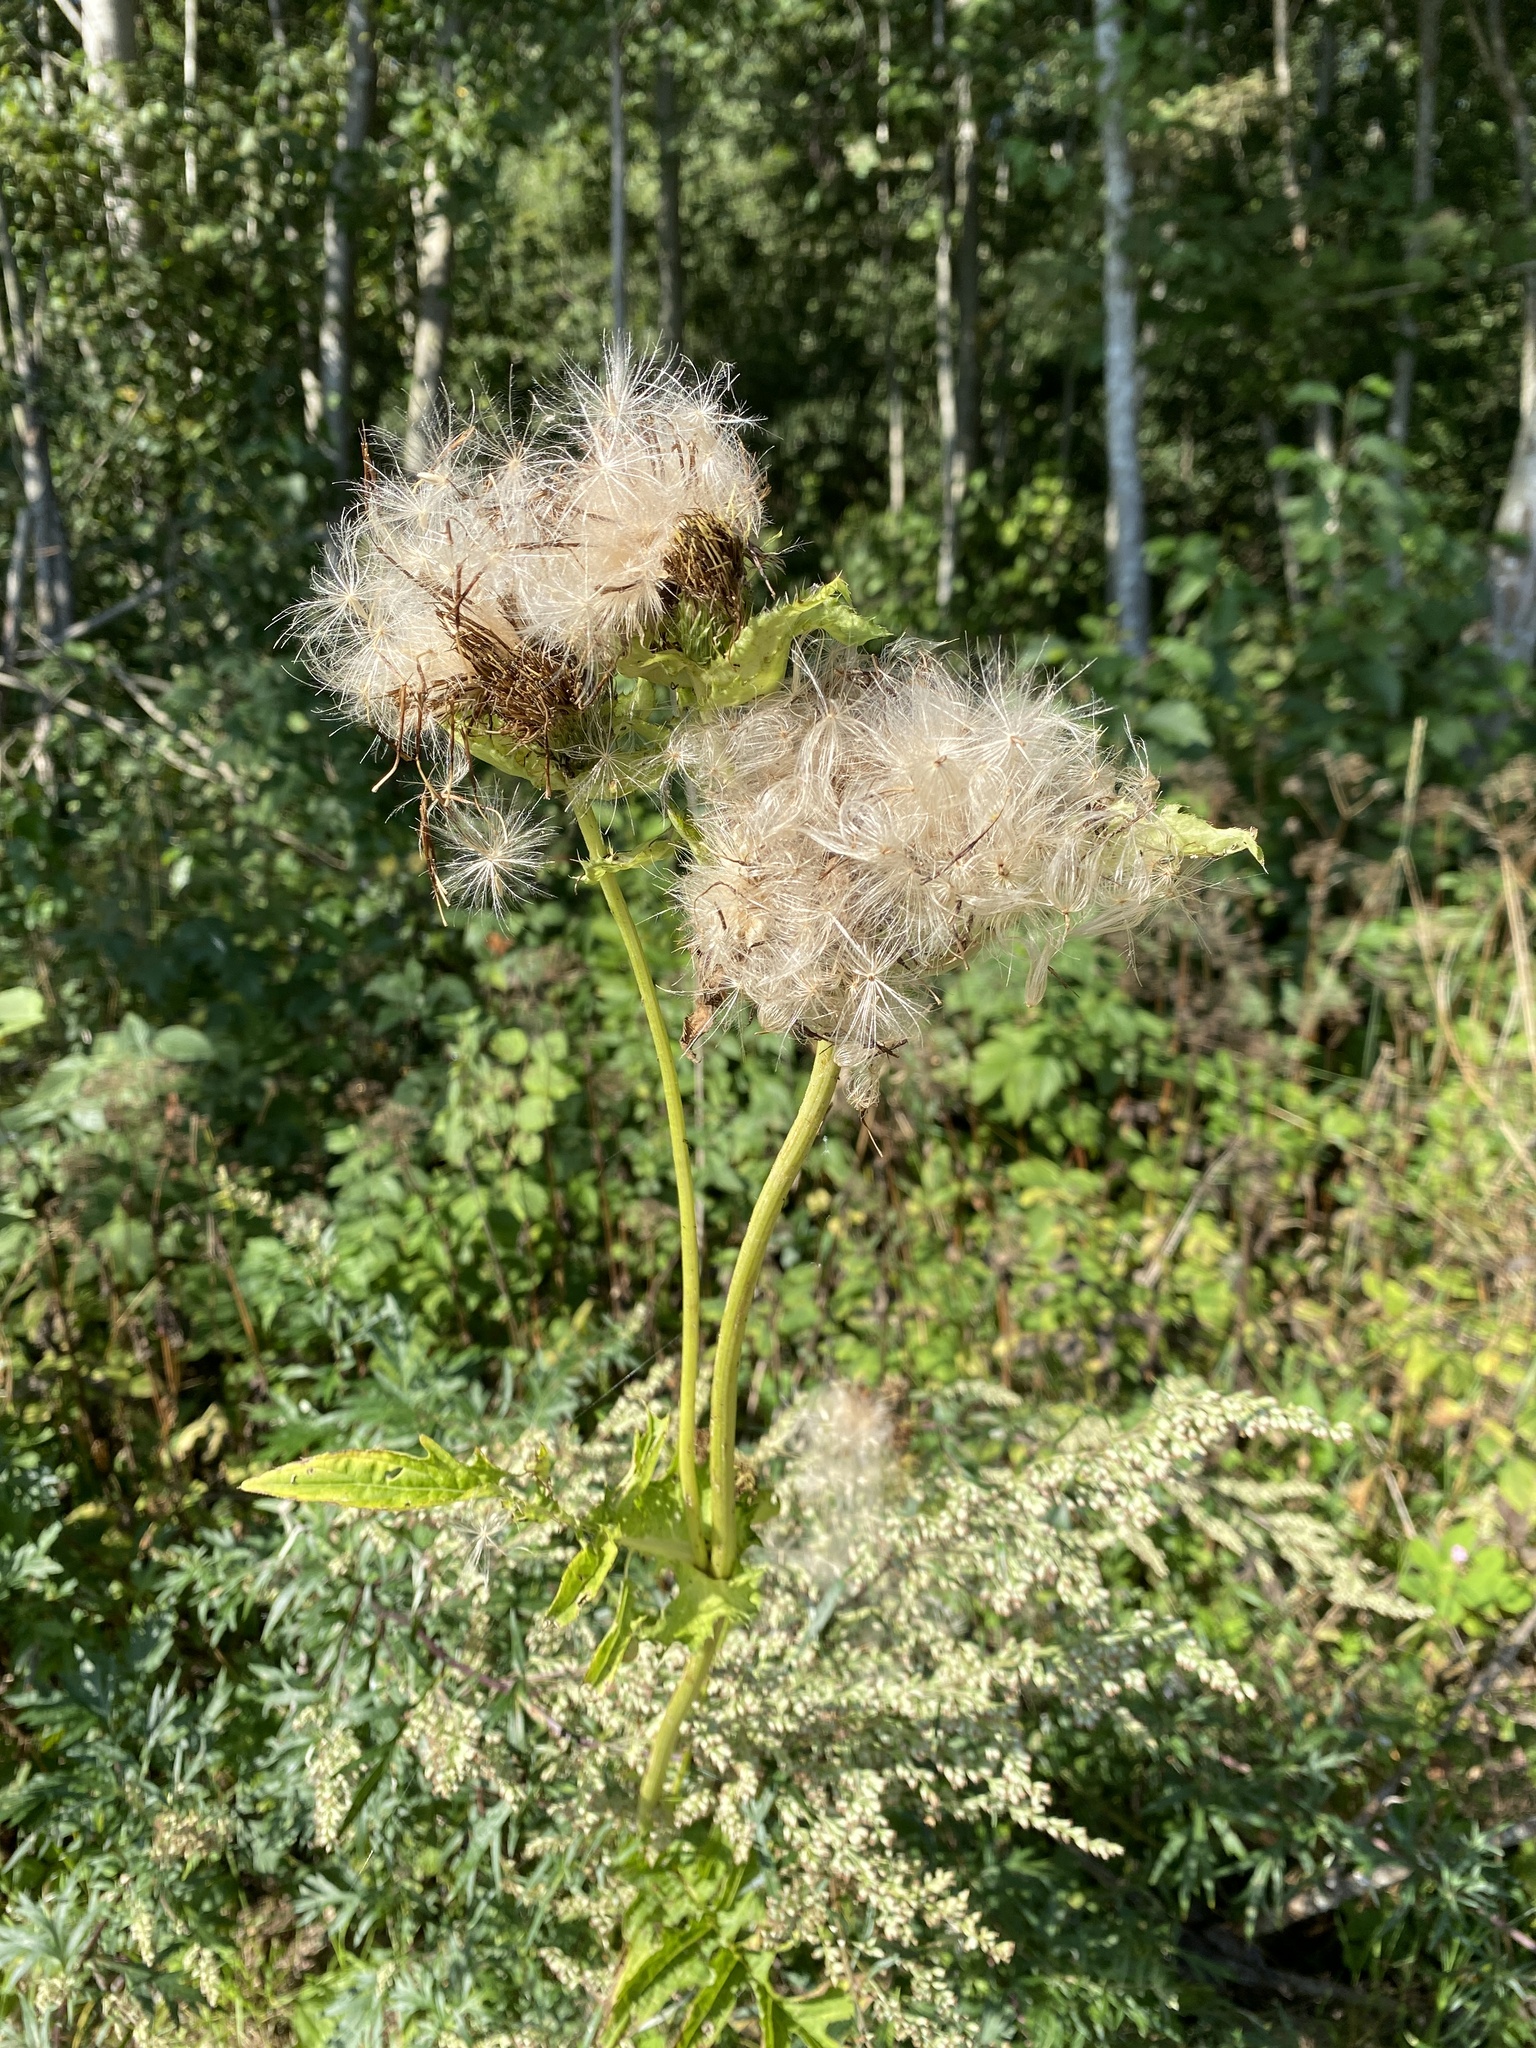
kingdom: Plantae
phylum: Tracheophyta
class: Magnoliopsida
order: Asterales
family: Asteraceae
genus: Cirsium
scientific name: Cirsium oleraceum
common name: Cabbage thistle
